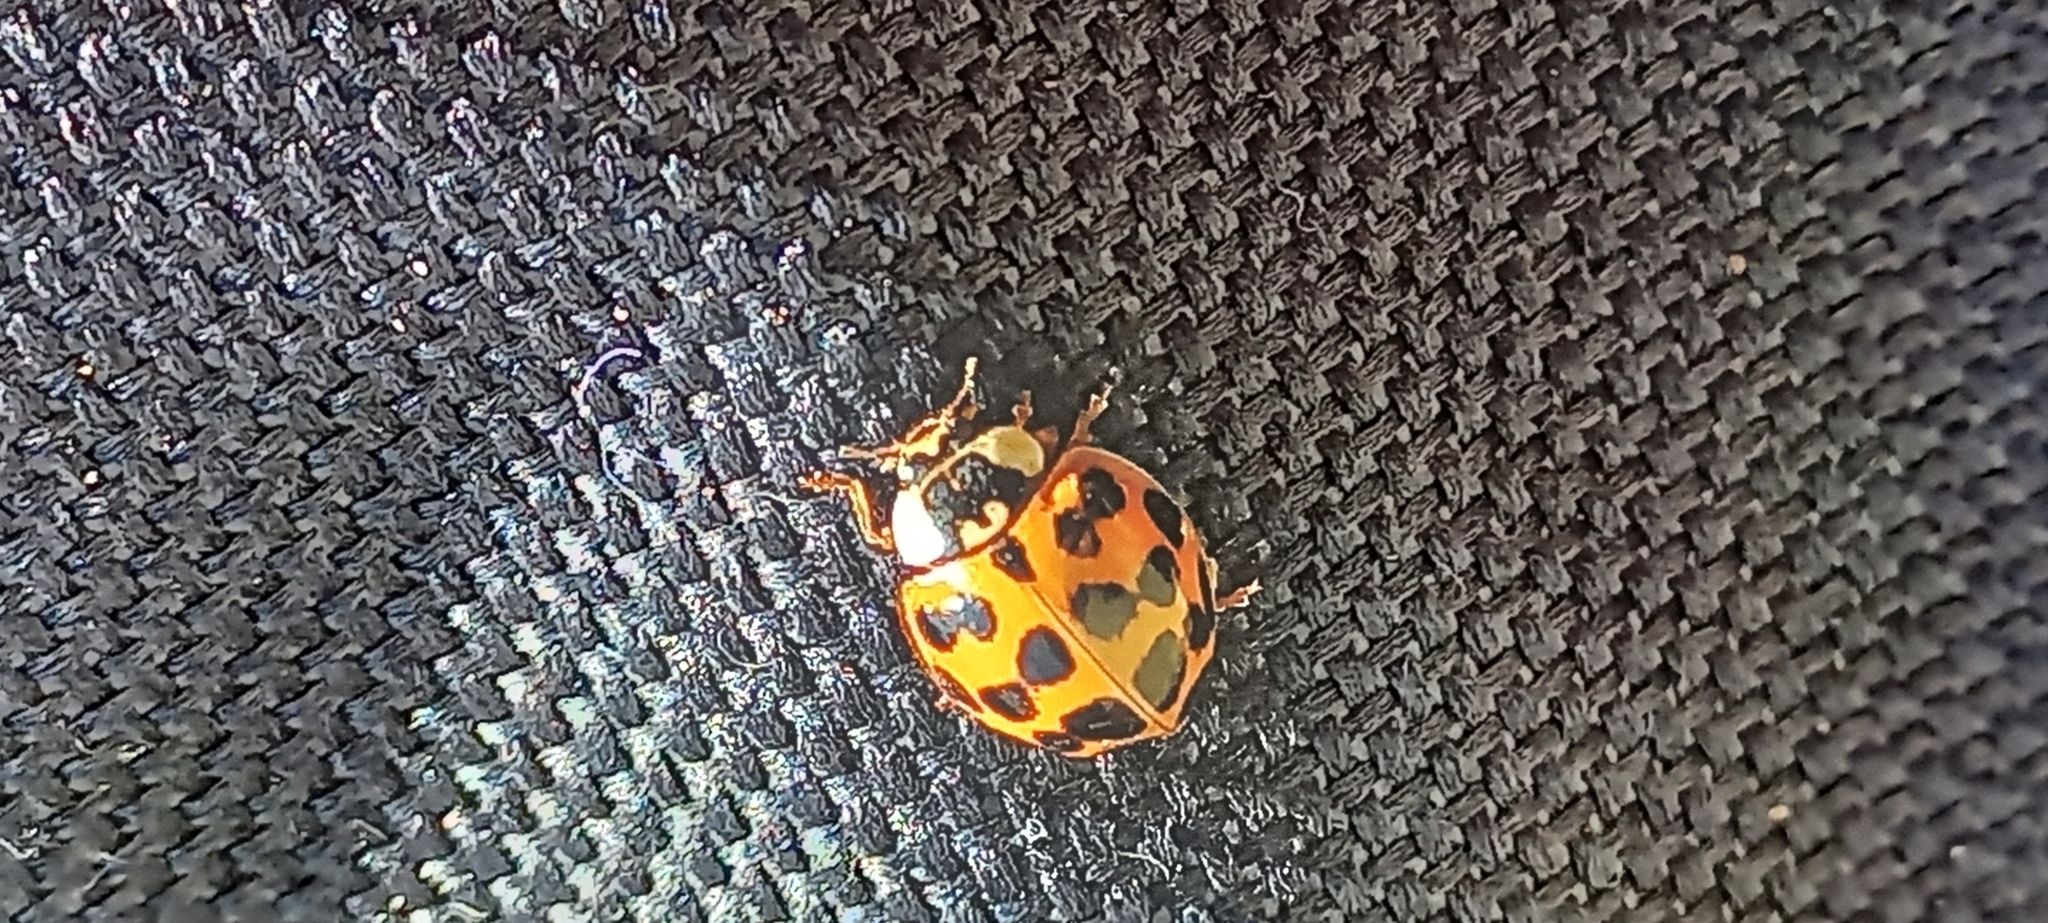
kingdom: Animalia
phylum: Arthropoda
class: Insecta
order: Coleoptera
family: Coccinellidae
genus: Harmonia
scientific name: Harmonia axyridis
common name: Harlequin ladybird
